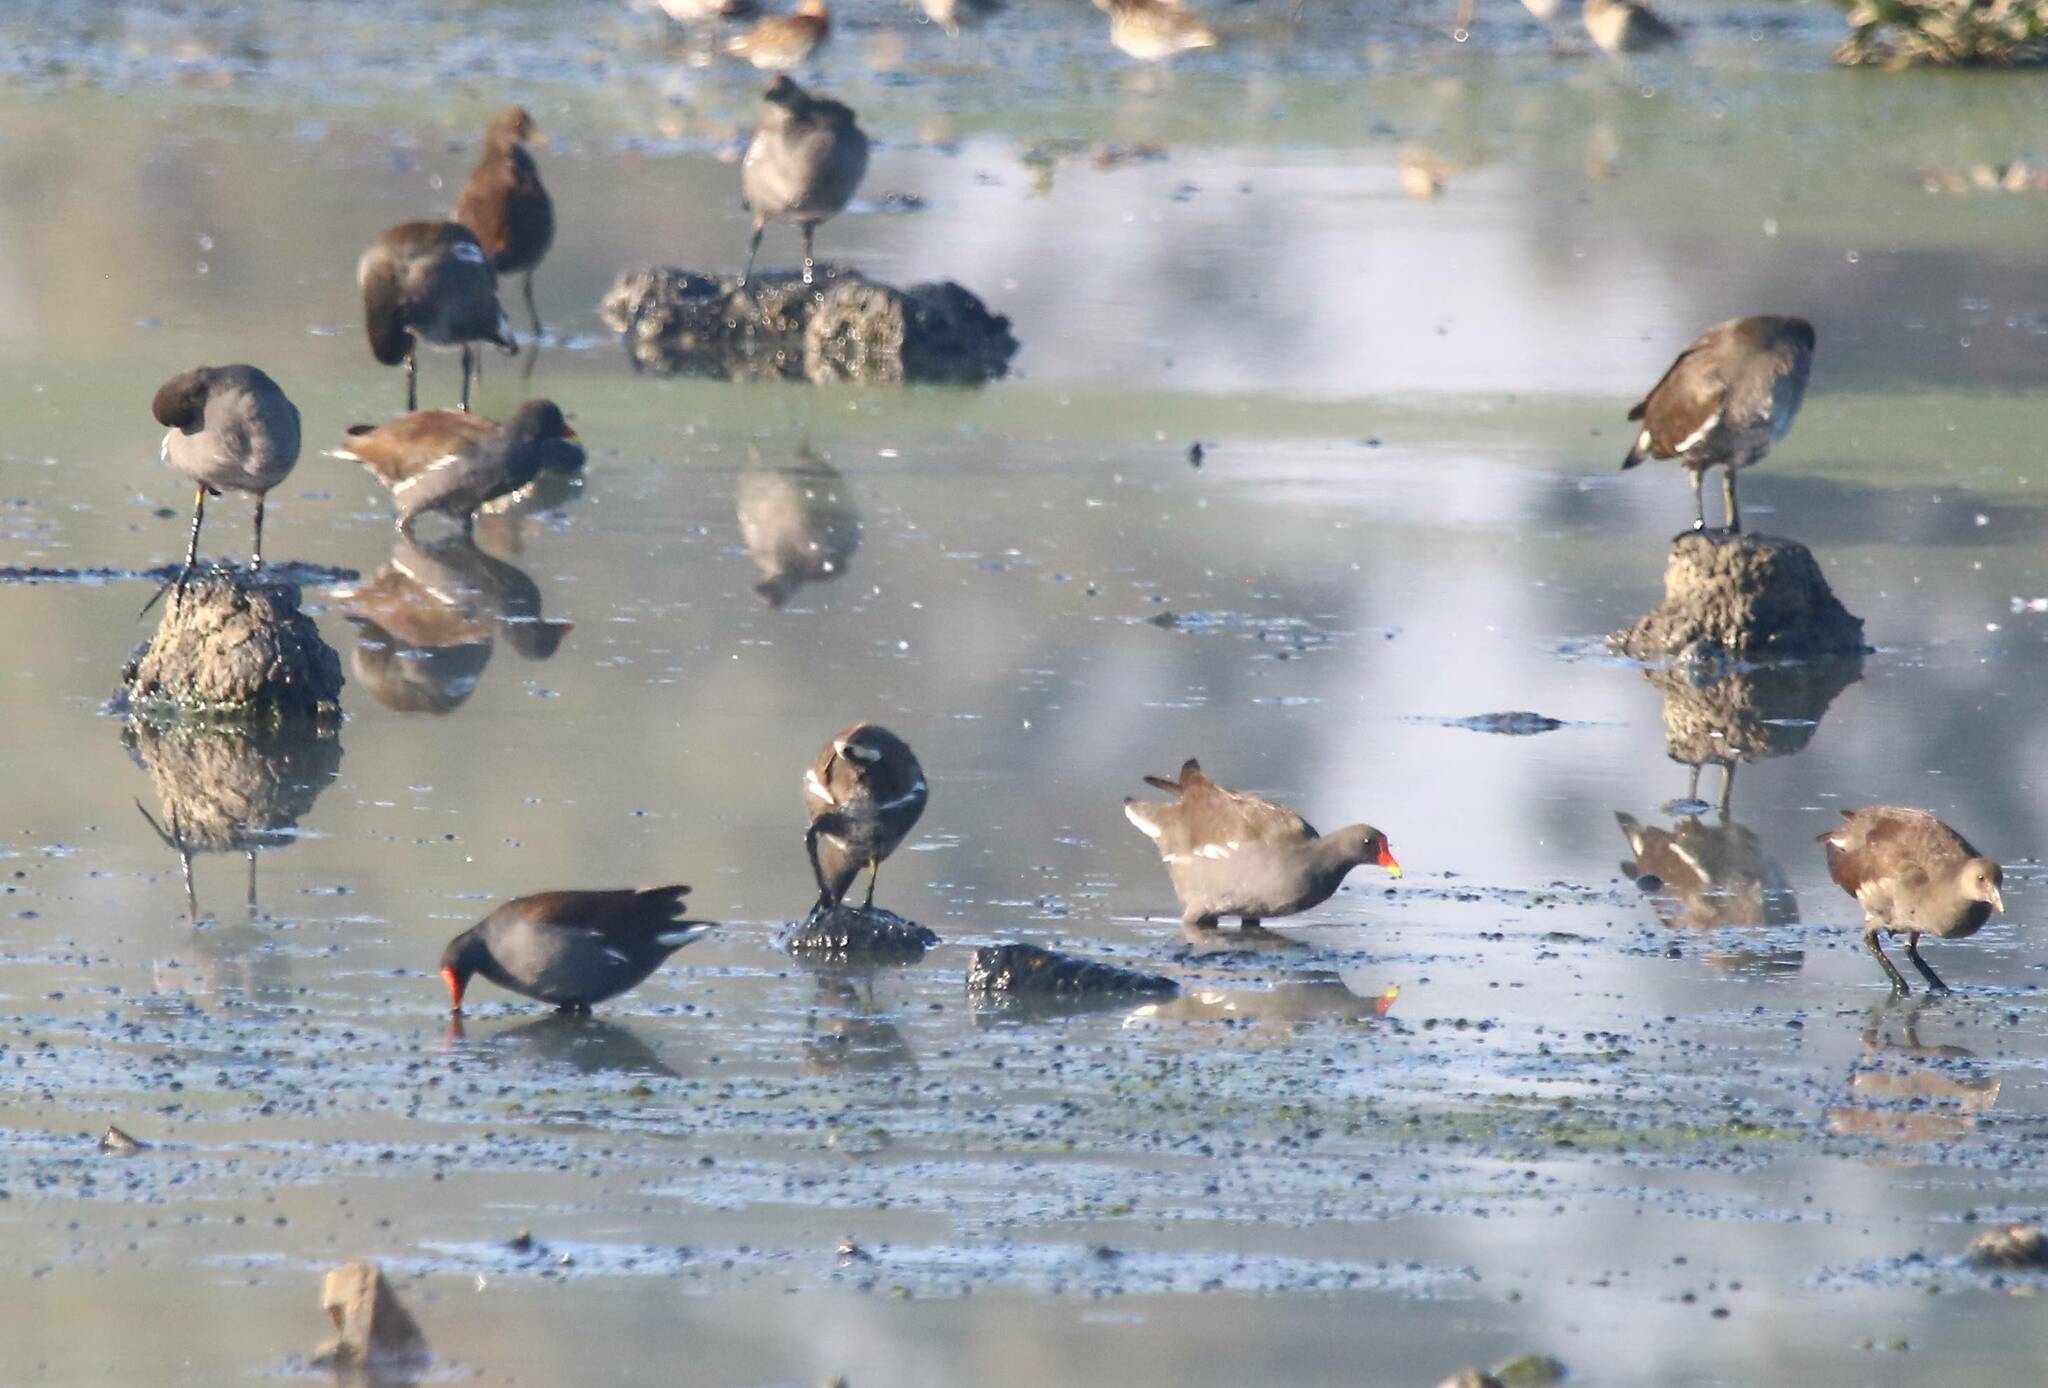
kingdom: Animalia
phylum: Chordata
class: Aves
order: Gruiformes
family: Rallidae
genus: Gallinula
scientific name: Gallinula chloropus
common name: Common moorhen
